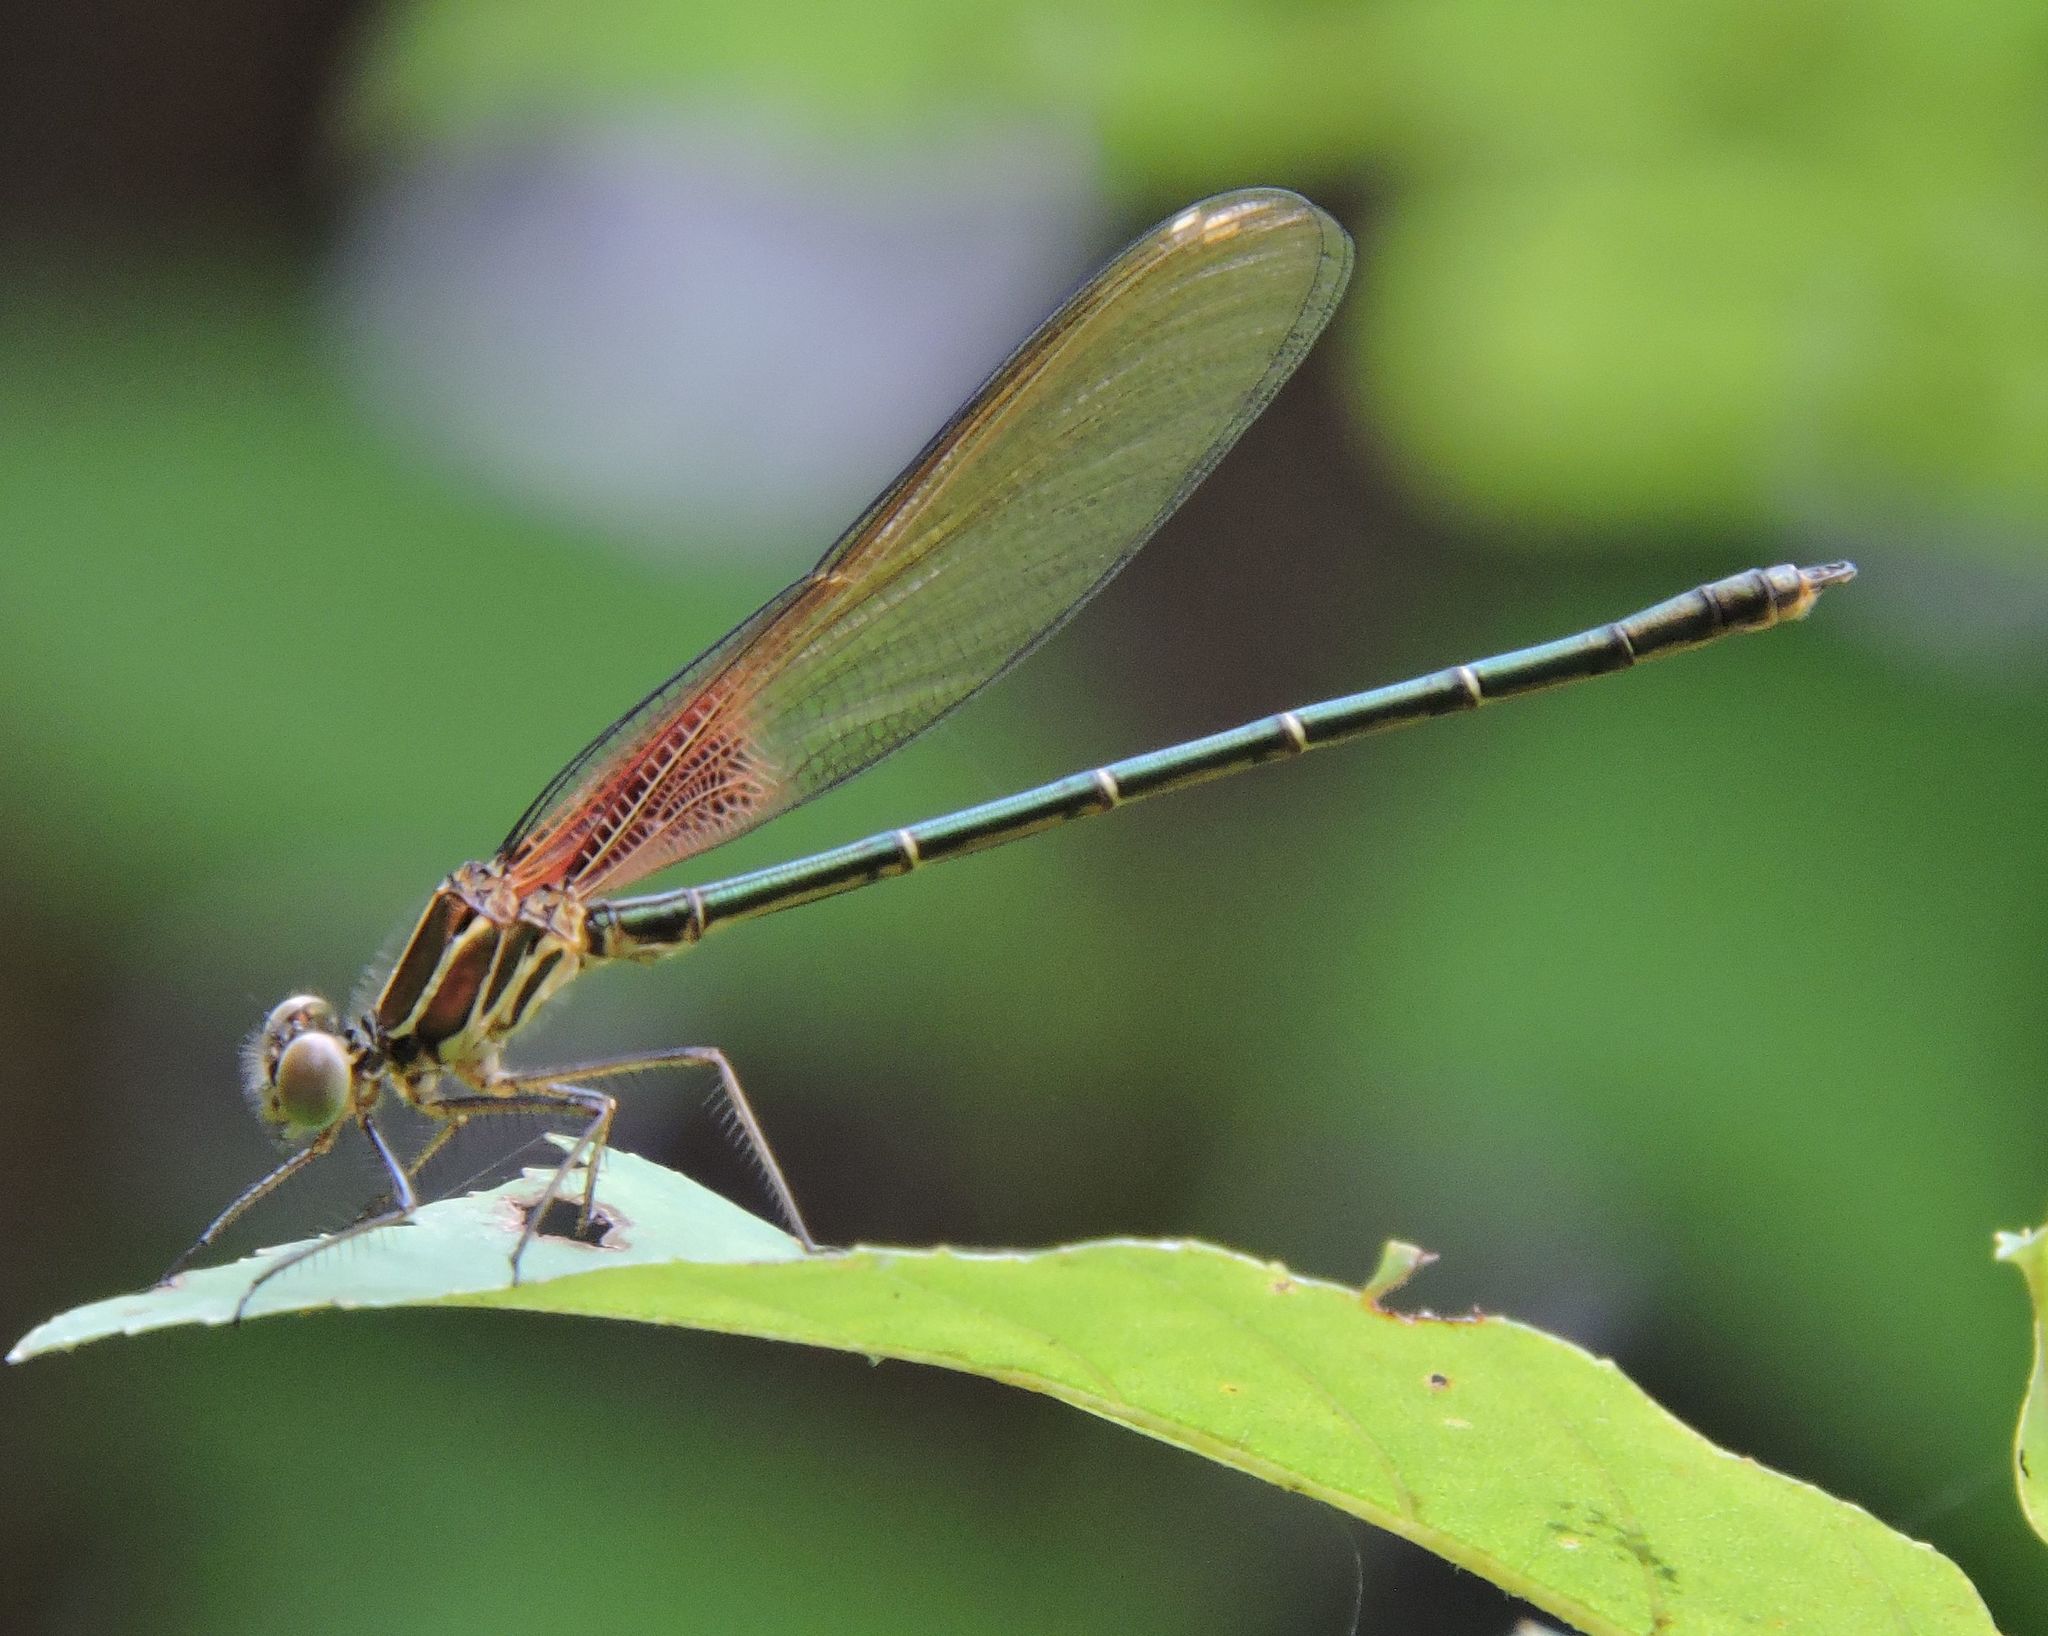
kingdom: Animalia
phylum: Arthropoda
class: Insecta
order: Odonata
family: Calopterygidae
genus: Hetaerina
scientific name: Hetaerina americana
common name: American rubyspot
